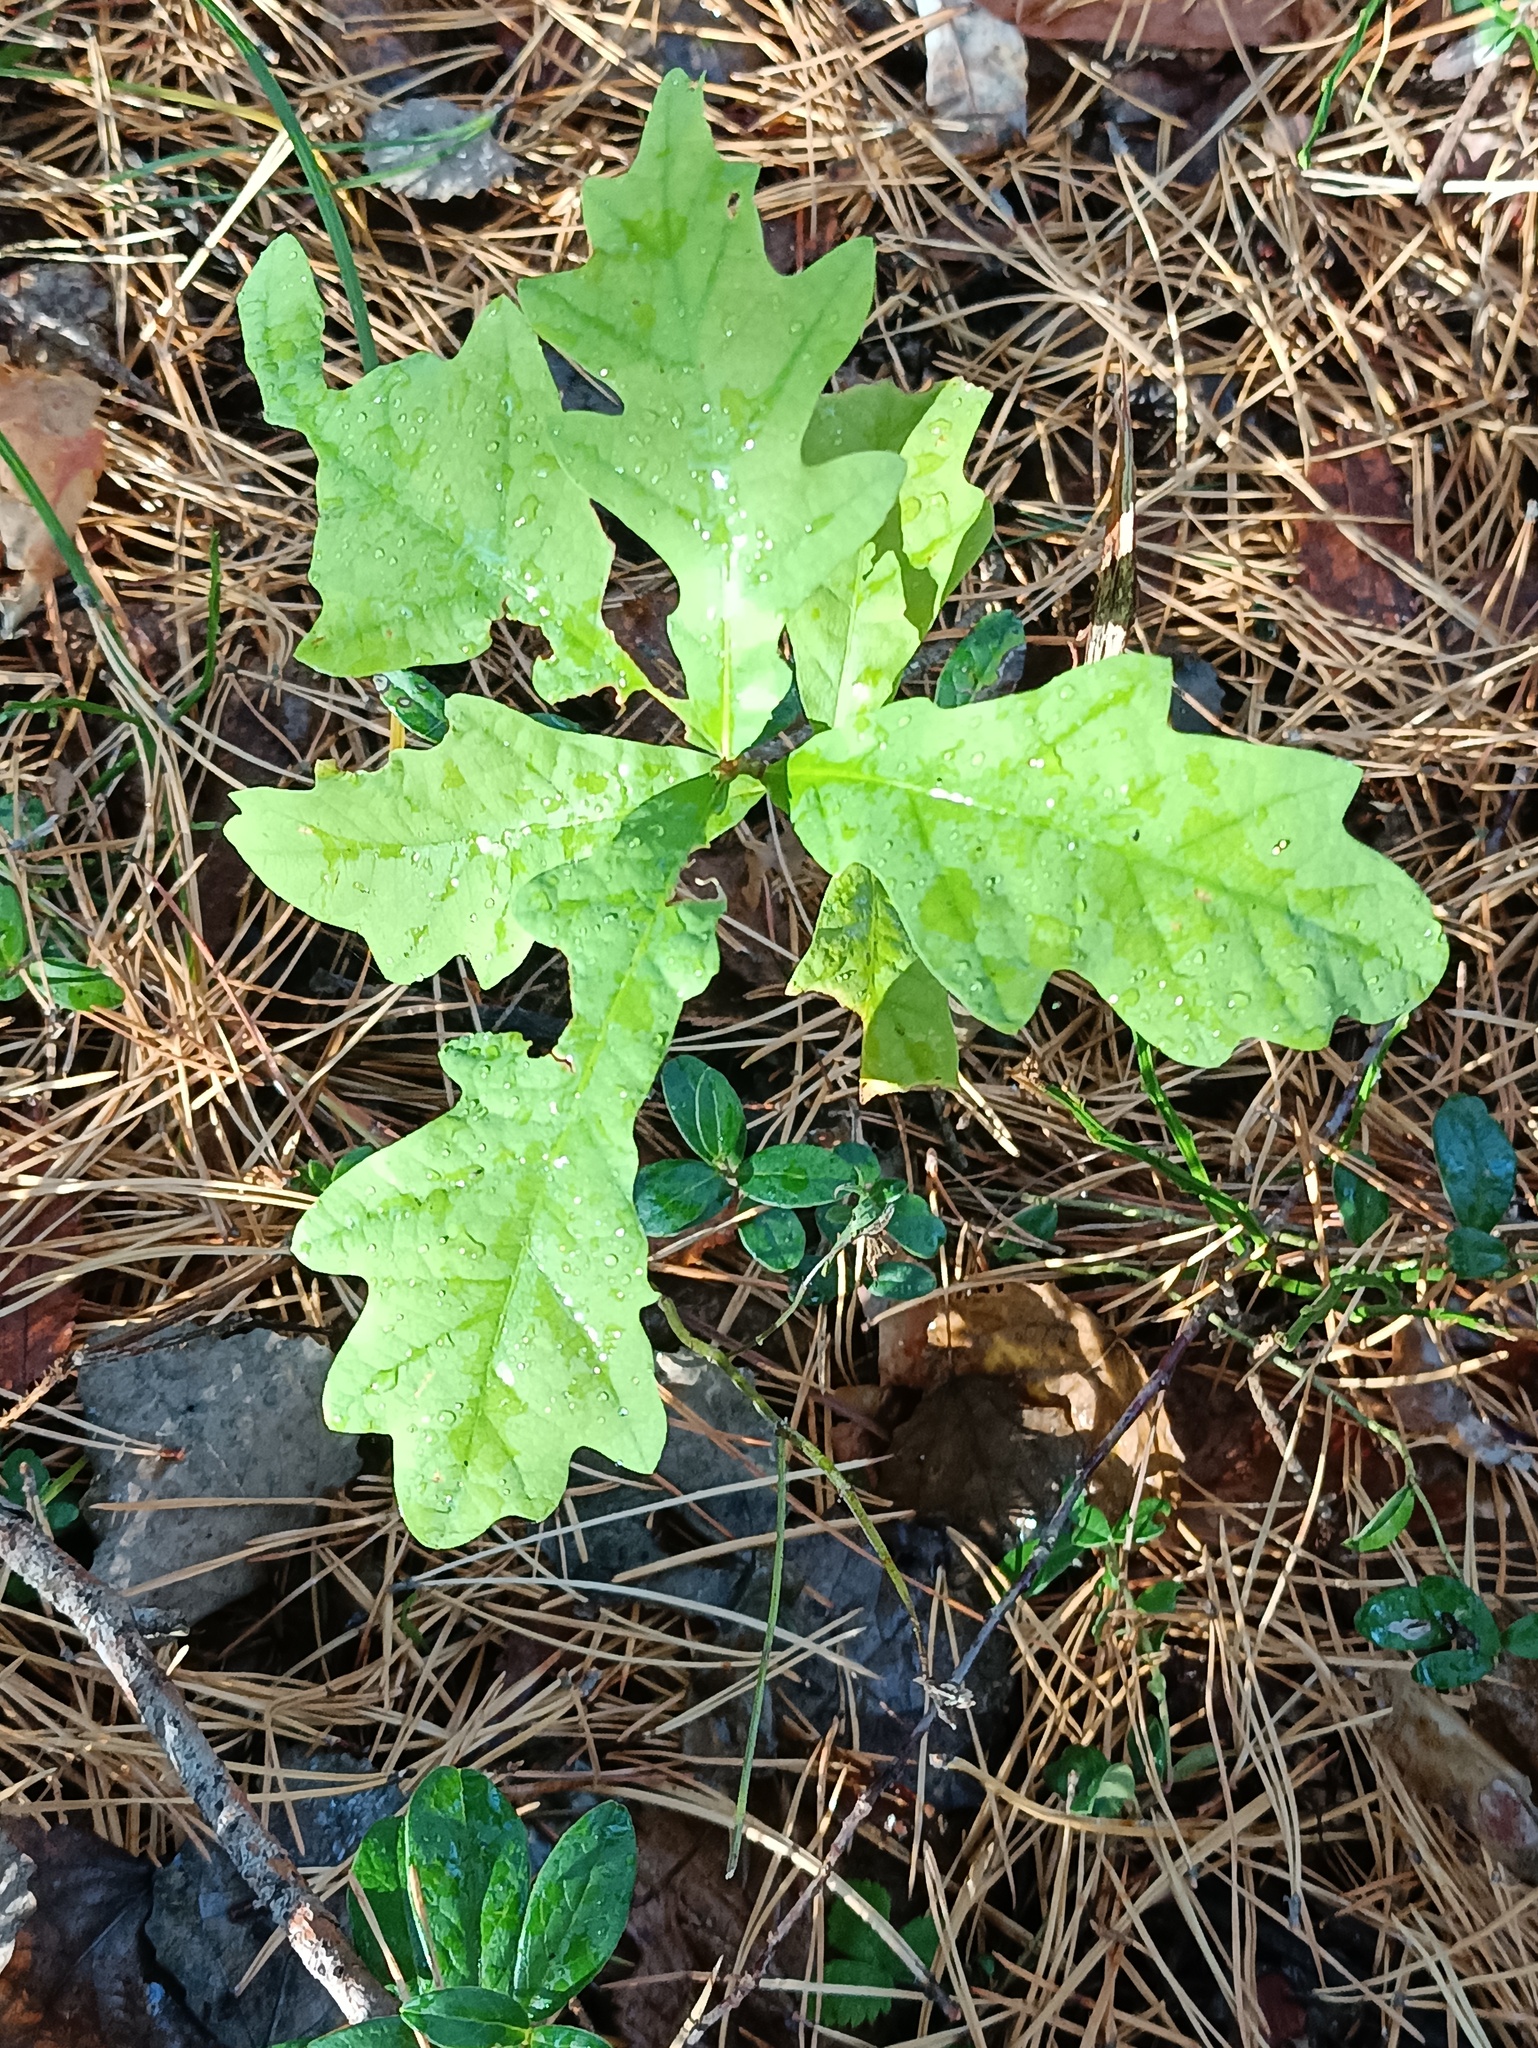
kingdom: Plantae
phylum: Tracheophyta
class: Magnoliopsida
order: Fagales
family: Fagaceae
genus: Quercus
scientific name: Quercus robur
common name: Pedunculate oak
